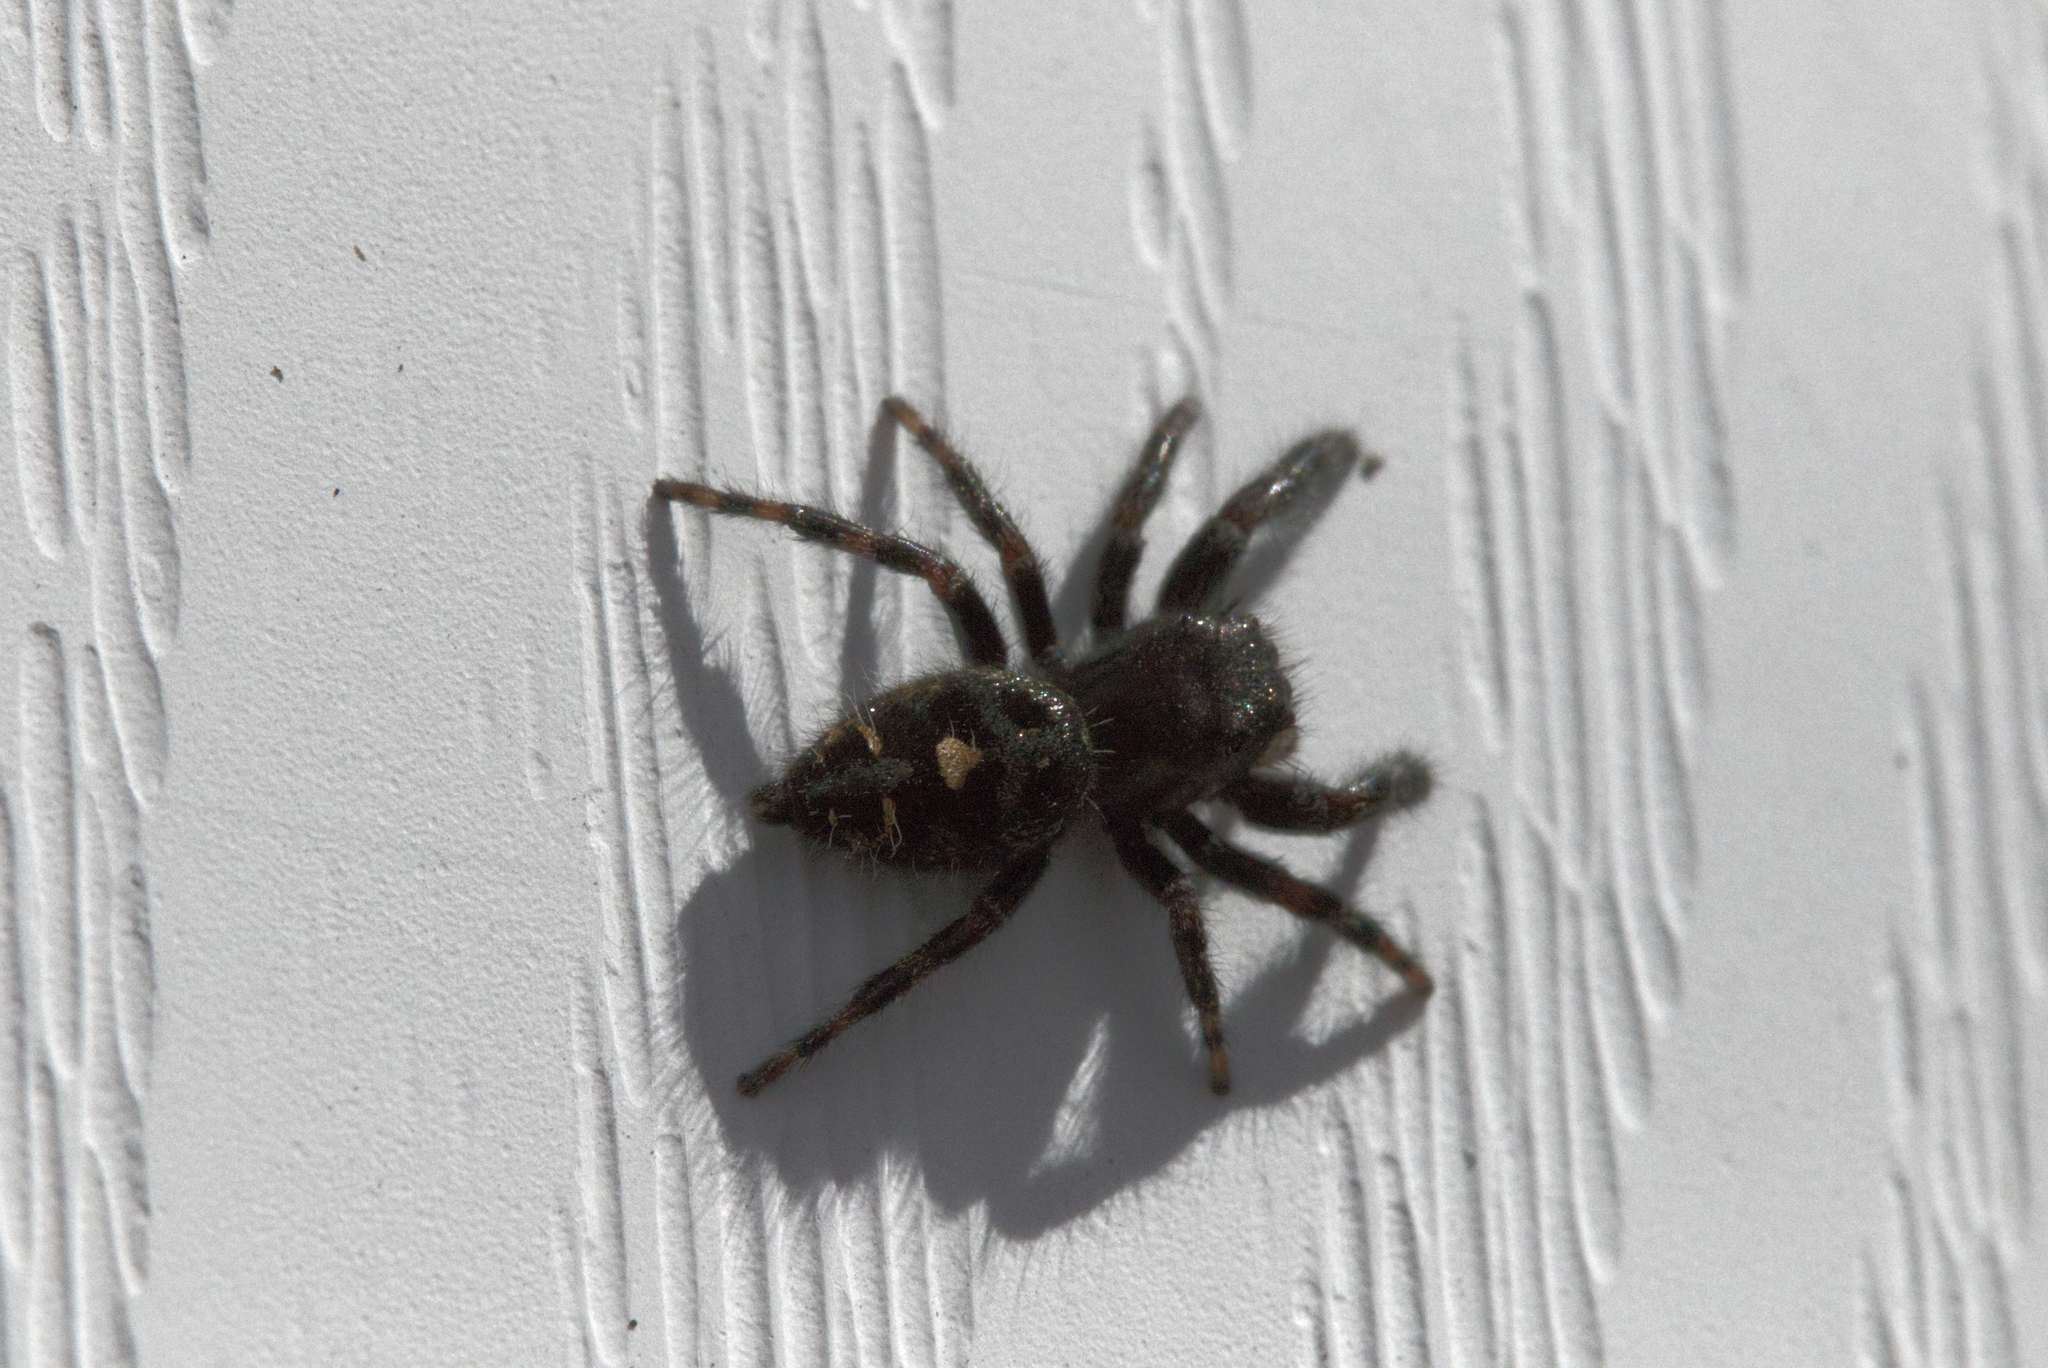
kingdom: Animalia
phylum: Arthropoda
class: Arachnida
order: Araneae
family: Salticidae
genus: Phidippus
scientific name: Phidippus audax
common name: Bold jumper
